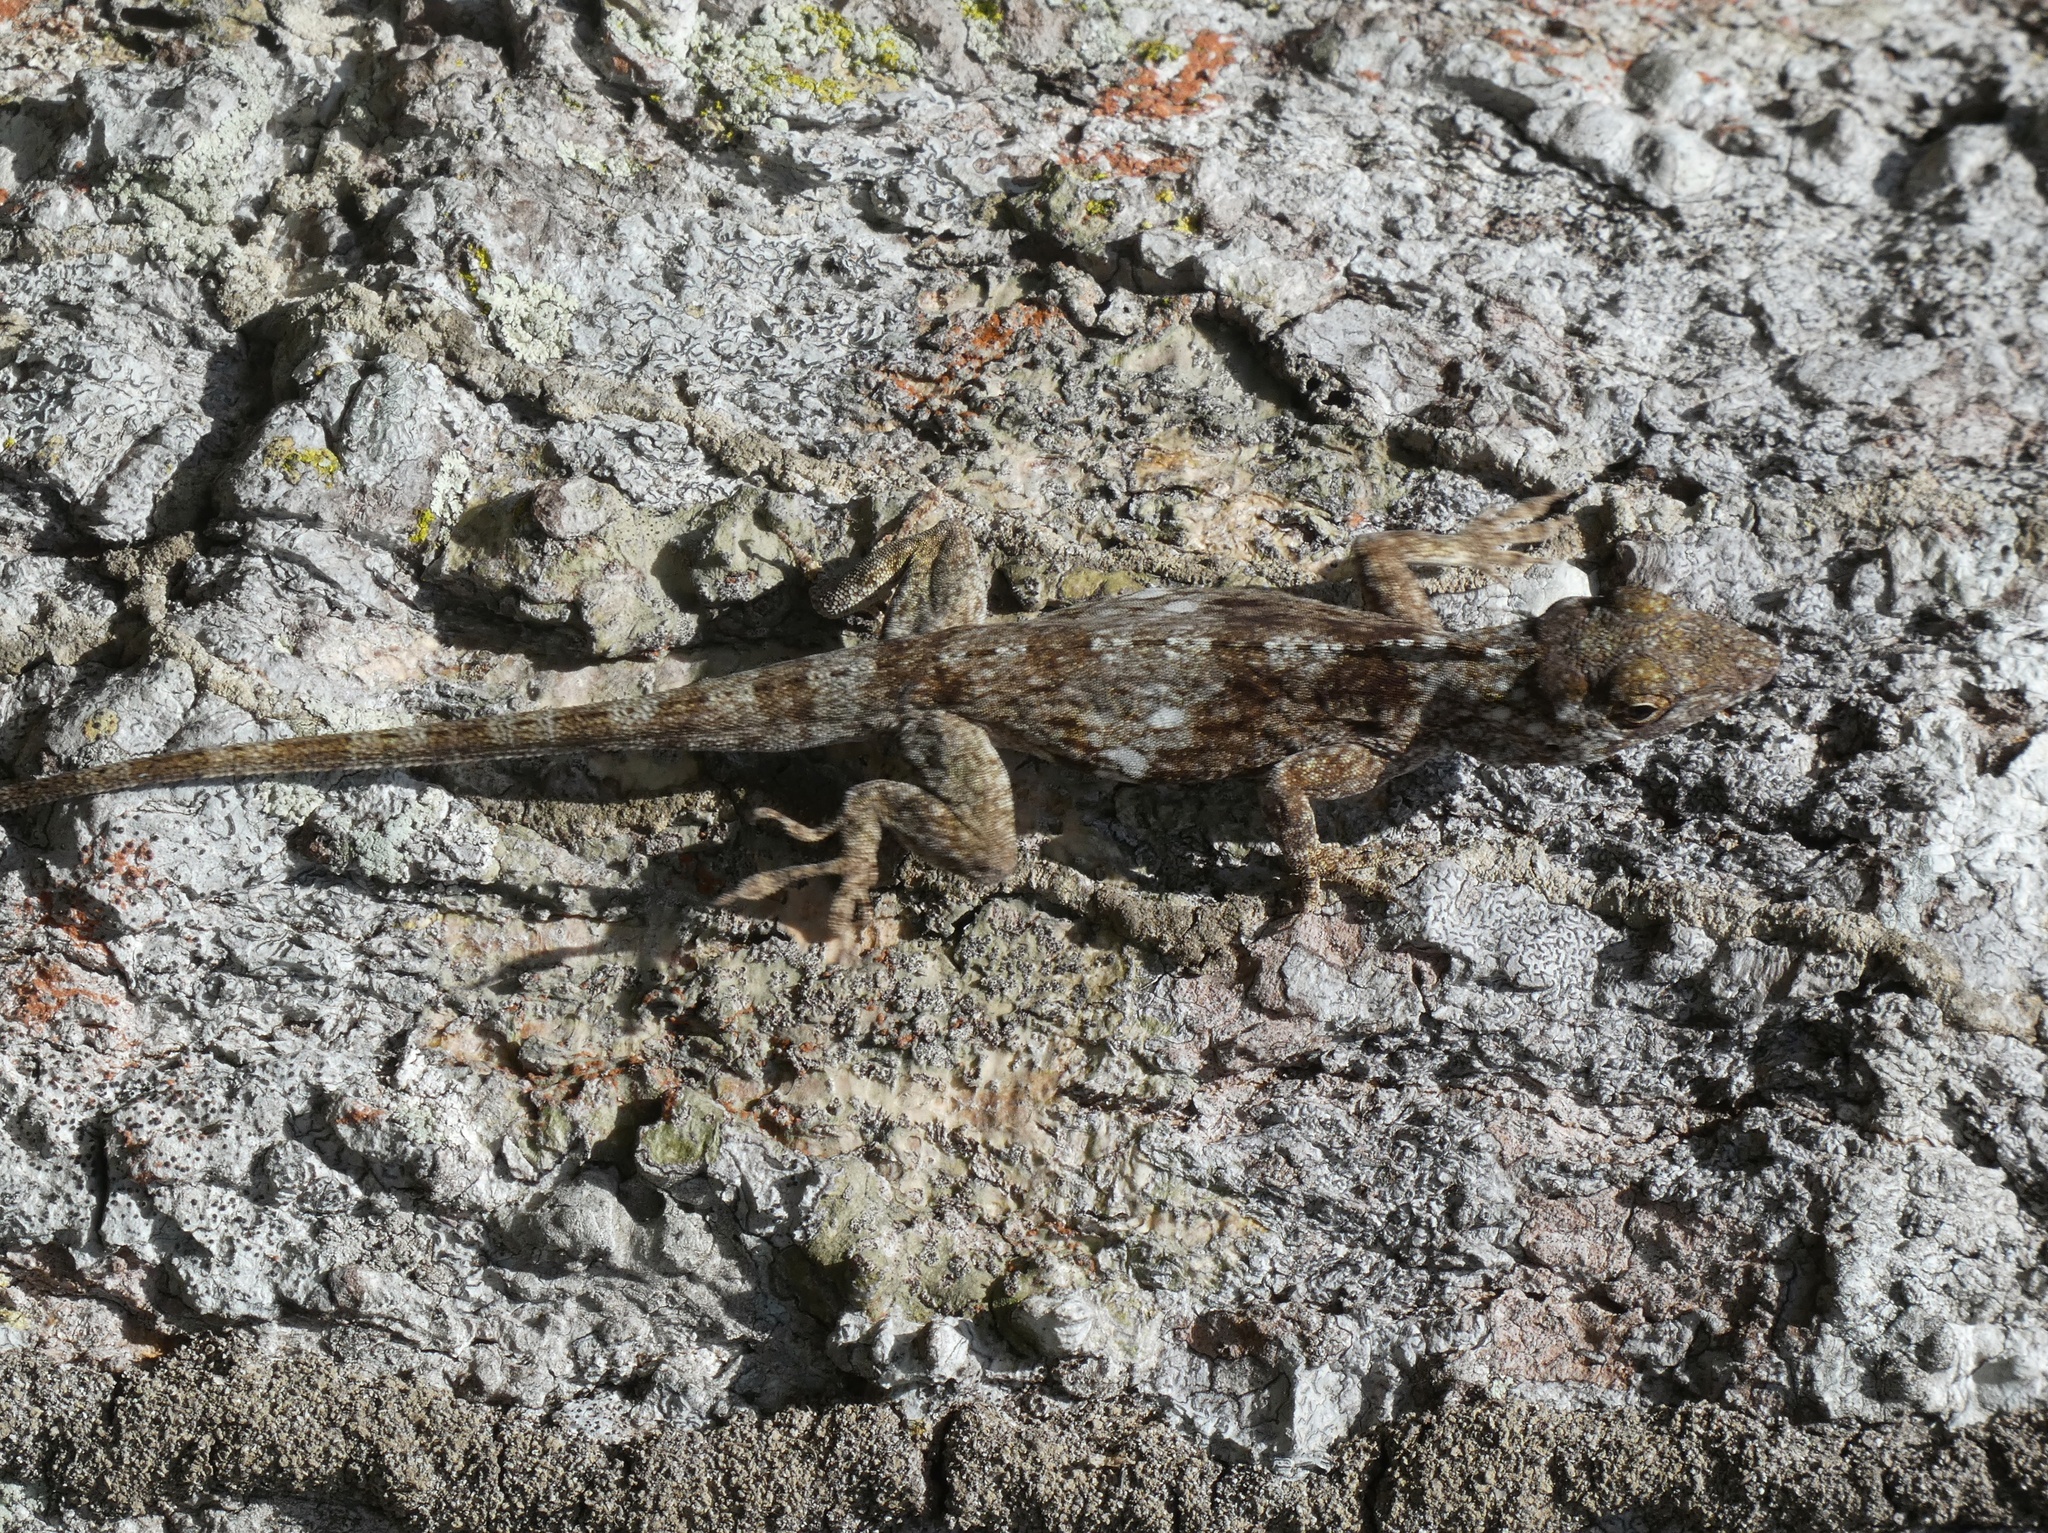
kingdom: Animalia
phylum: Chordata
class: Squamata
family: Dactyloidae
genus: Anolis
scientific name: Anolis pentaprion
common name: Lichen anole
